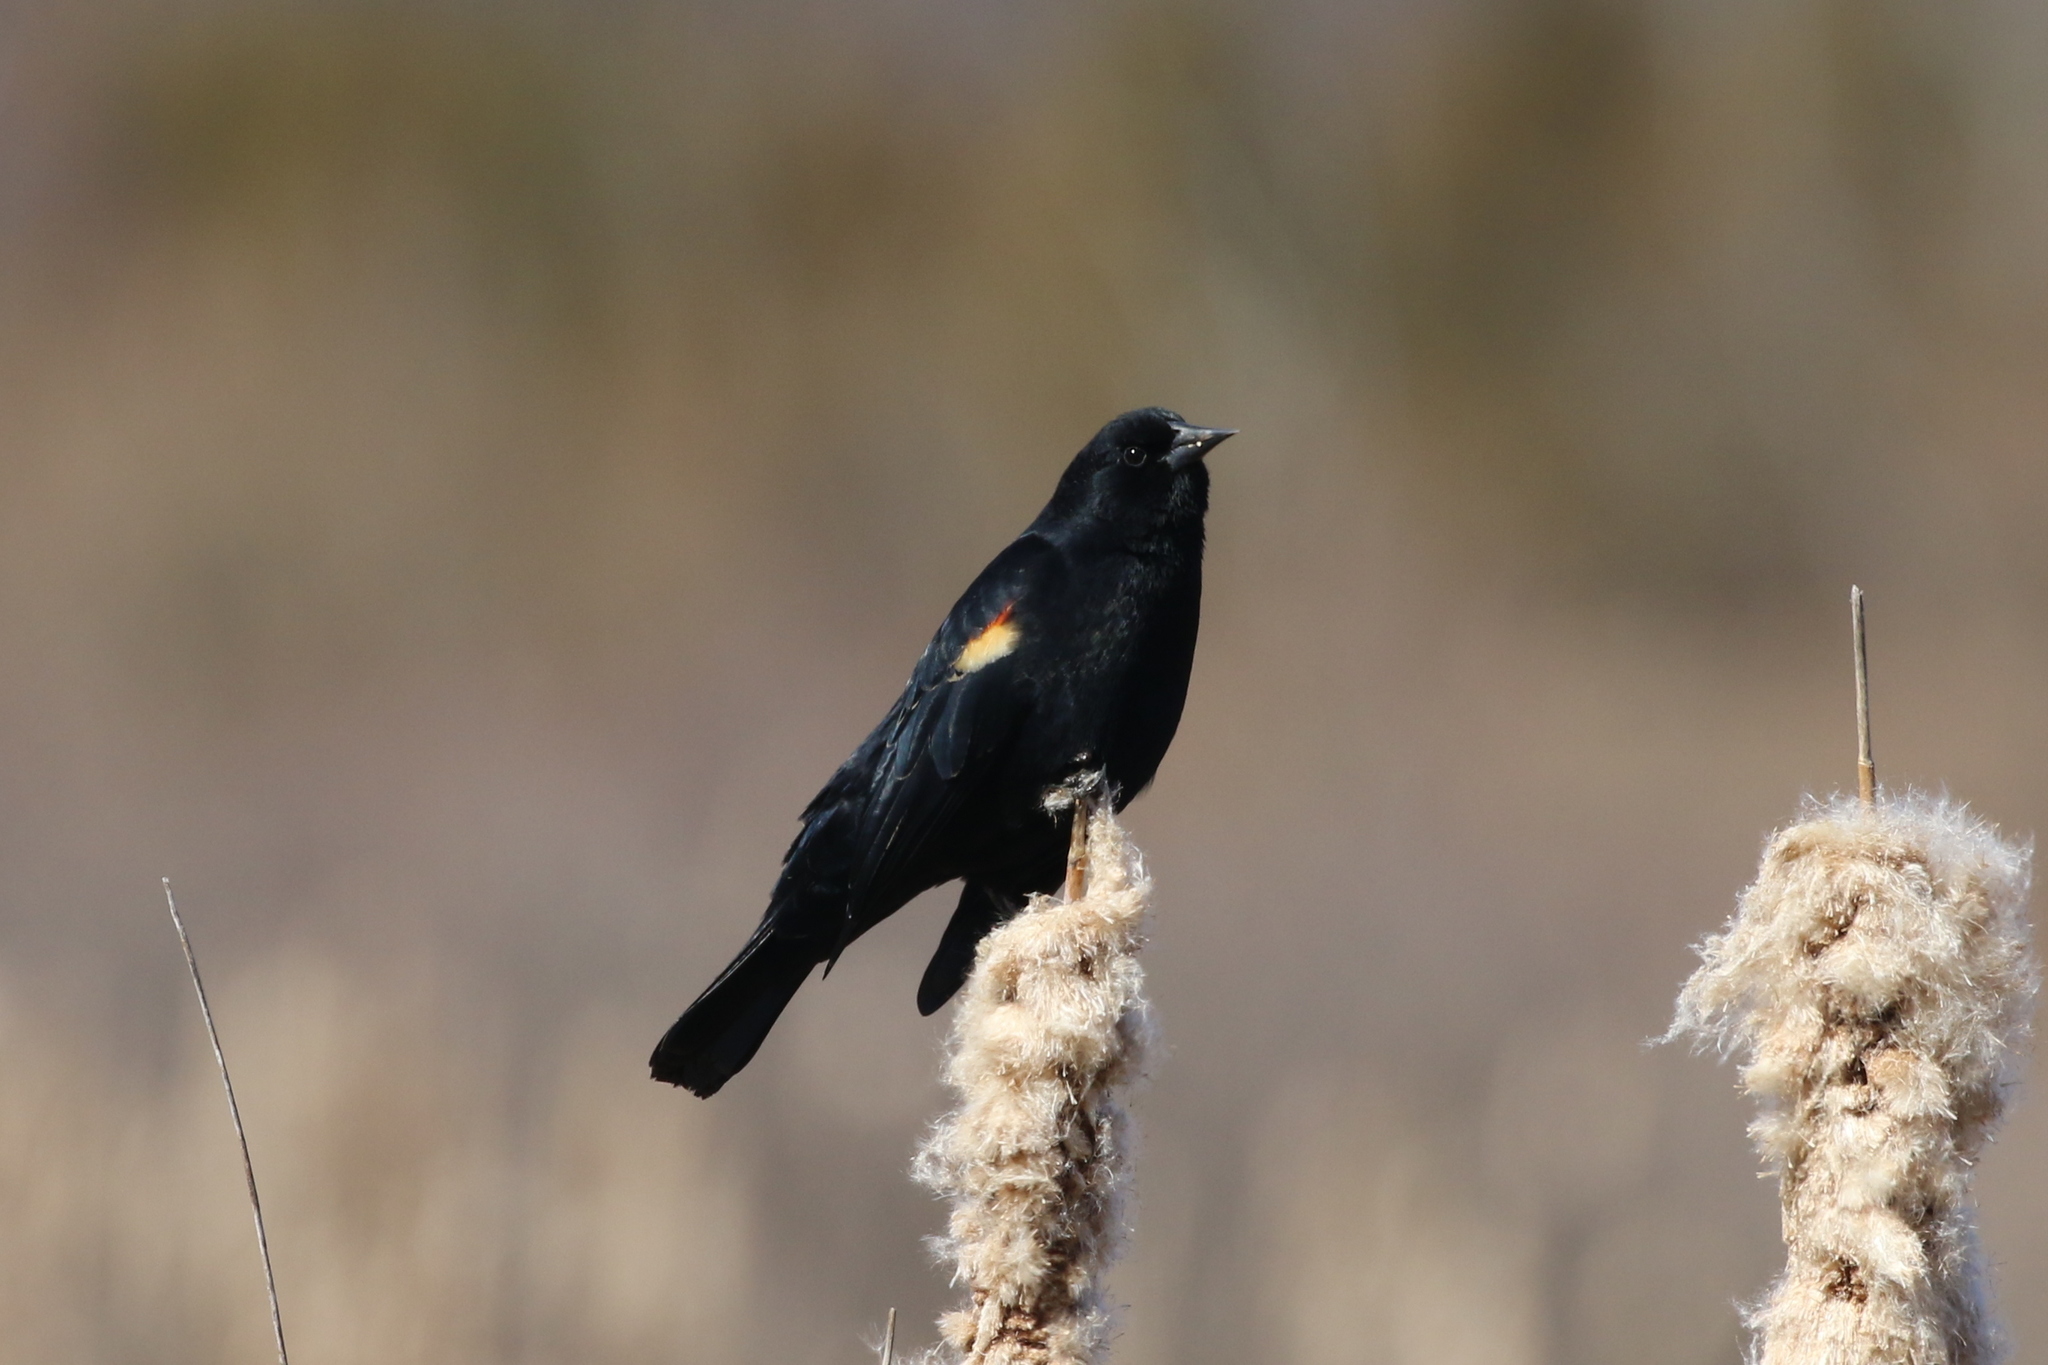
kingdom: Animalia
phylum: Chordata
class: Aves
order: Passeriformes
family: Icteridae
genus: Agelaius
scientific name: Agelaius phoeniceus
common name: Red-winged blackbird
